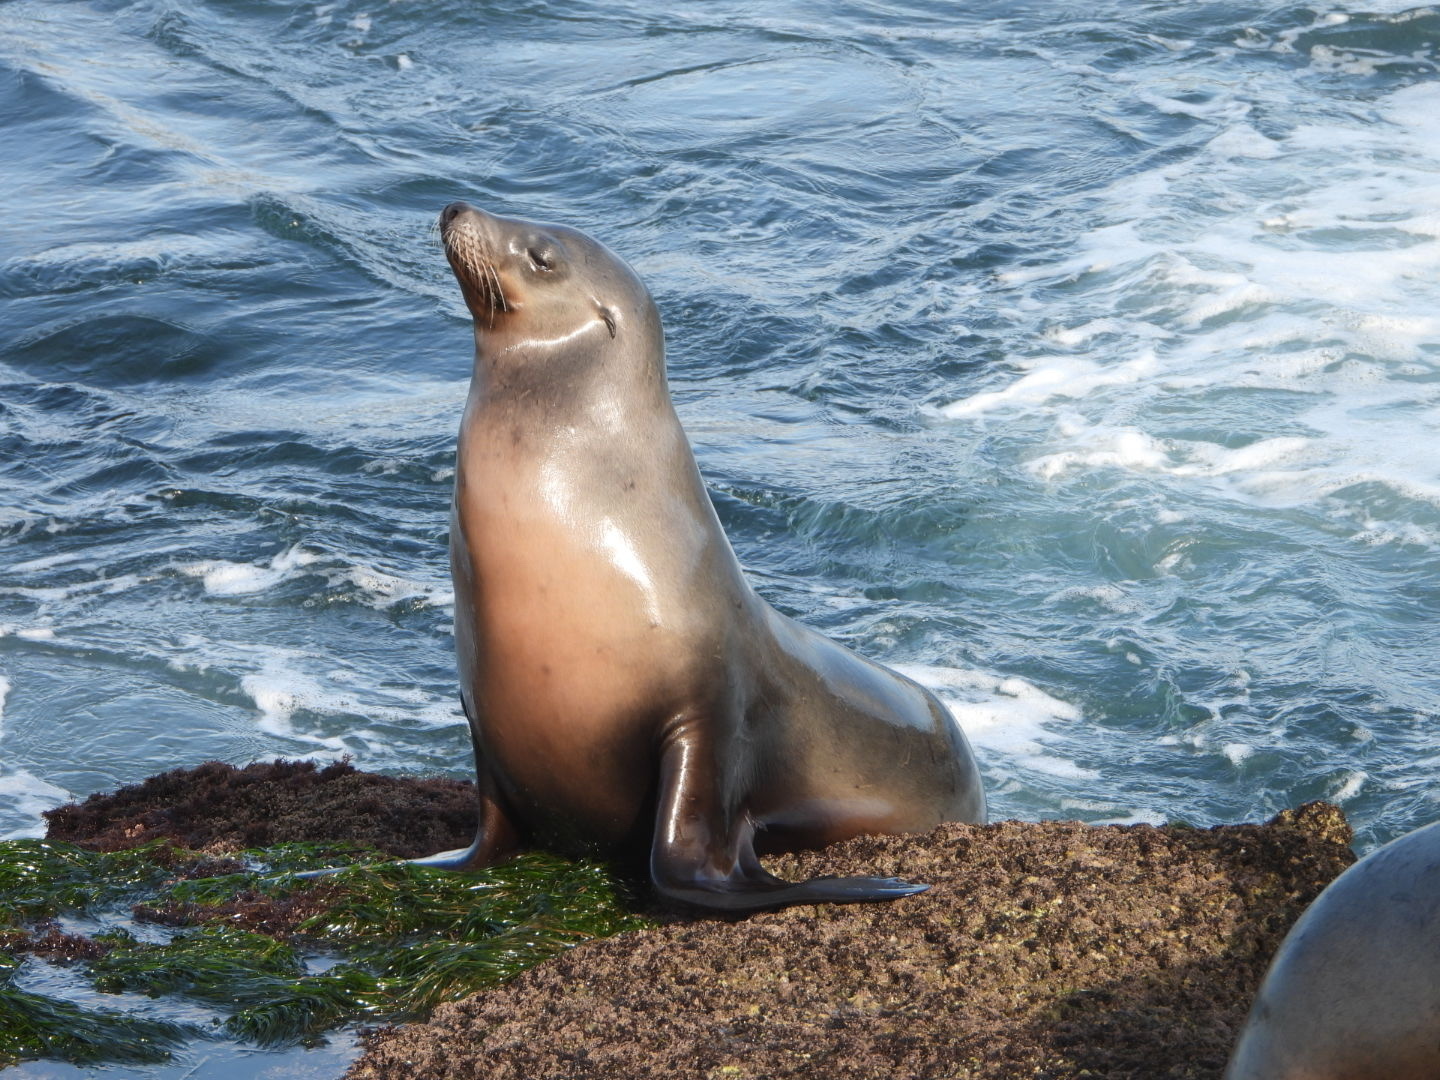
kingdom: Animalia
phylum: Chordata
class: Mammalia
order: Carnivora
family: Otariidae
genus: Zalophus
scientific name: Zalophus californianus
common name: California sea lion
